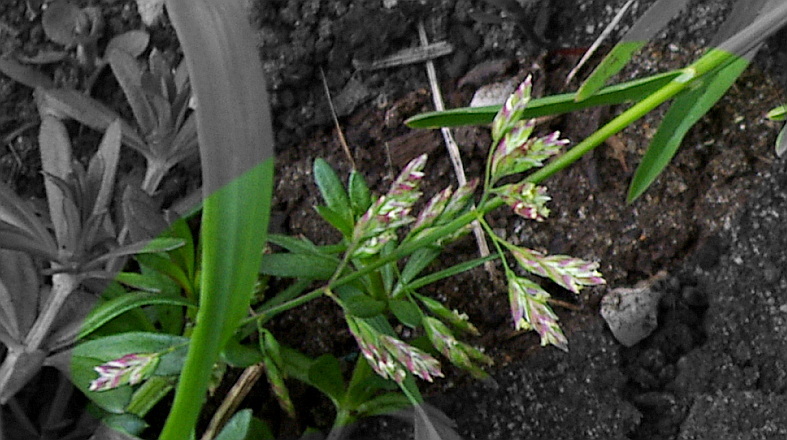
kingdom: Plantae
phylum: Tracheophyta
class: Liliopsida
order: Poales
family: Poaceae
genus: Poa
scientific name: Poa annua
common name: Annual bluegrass
